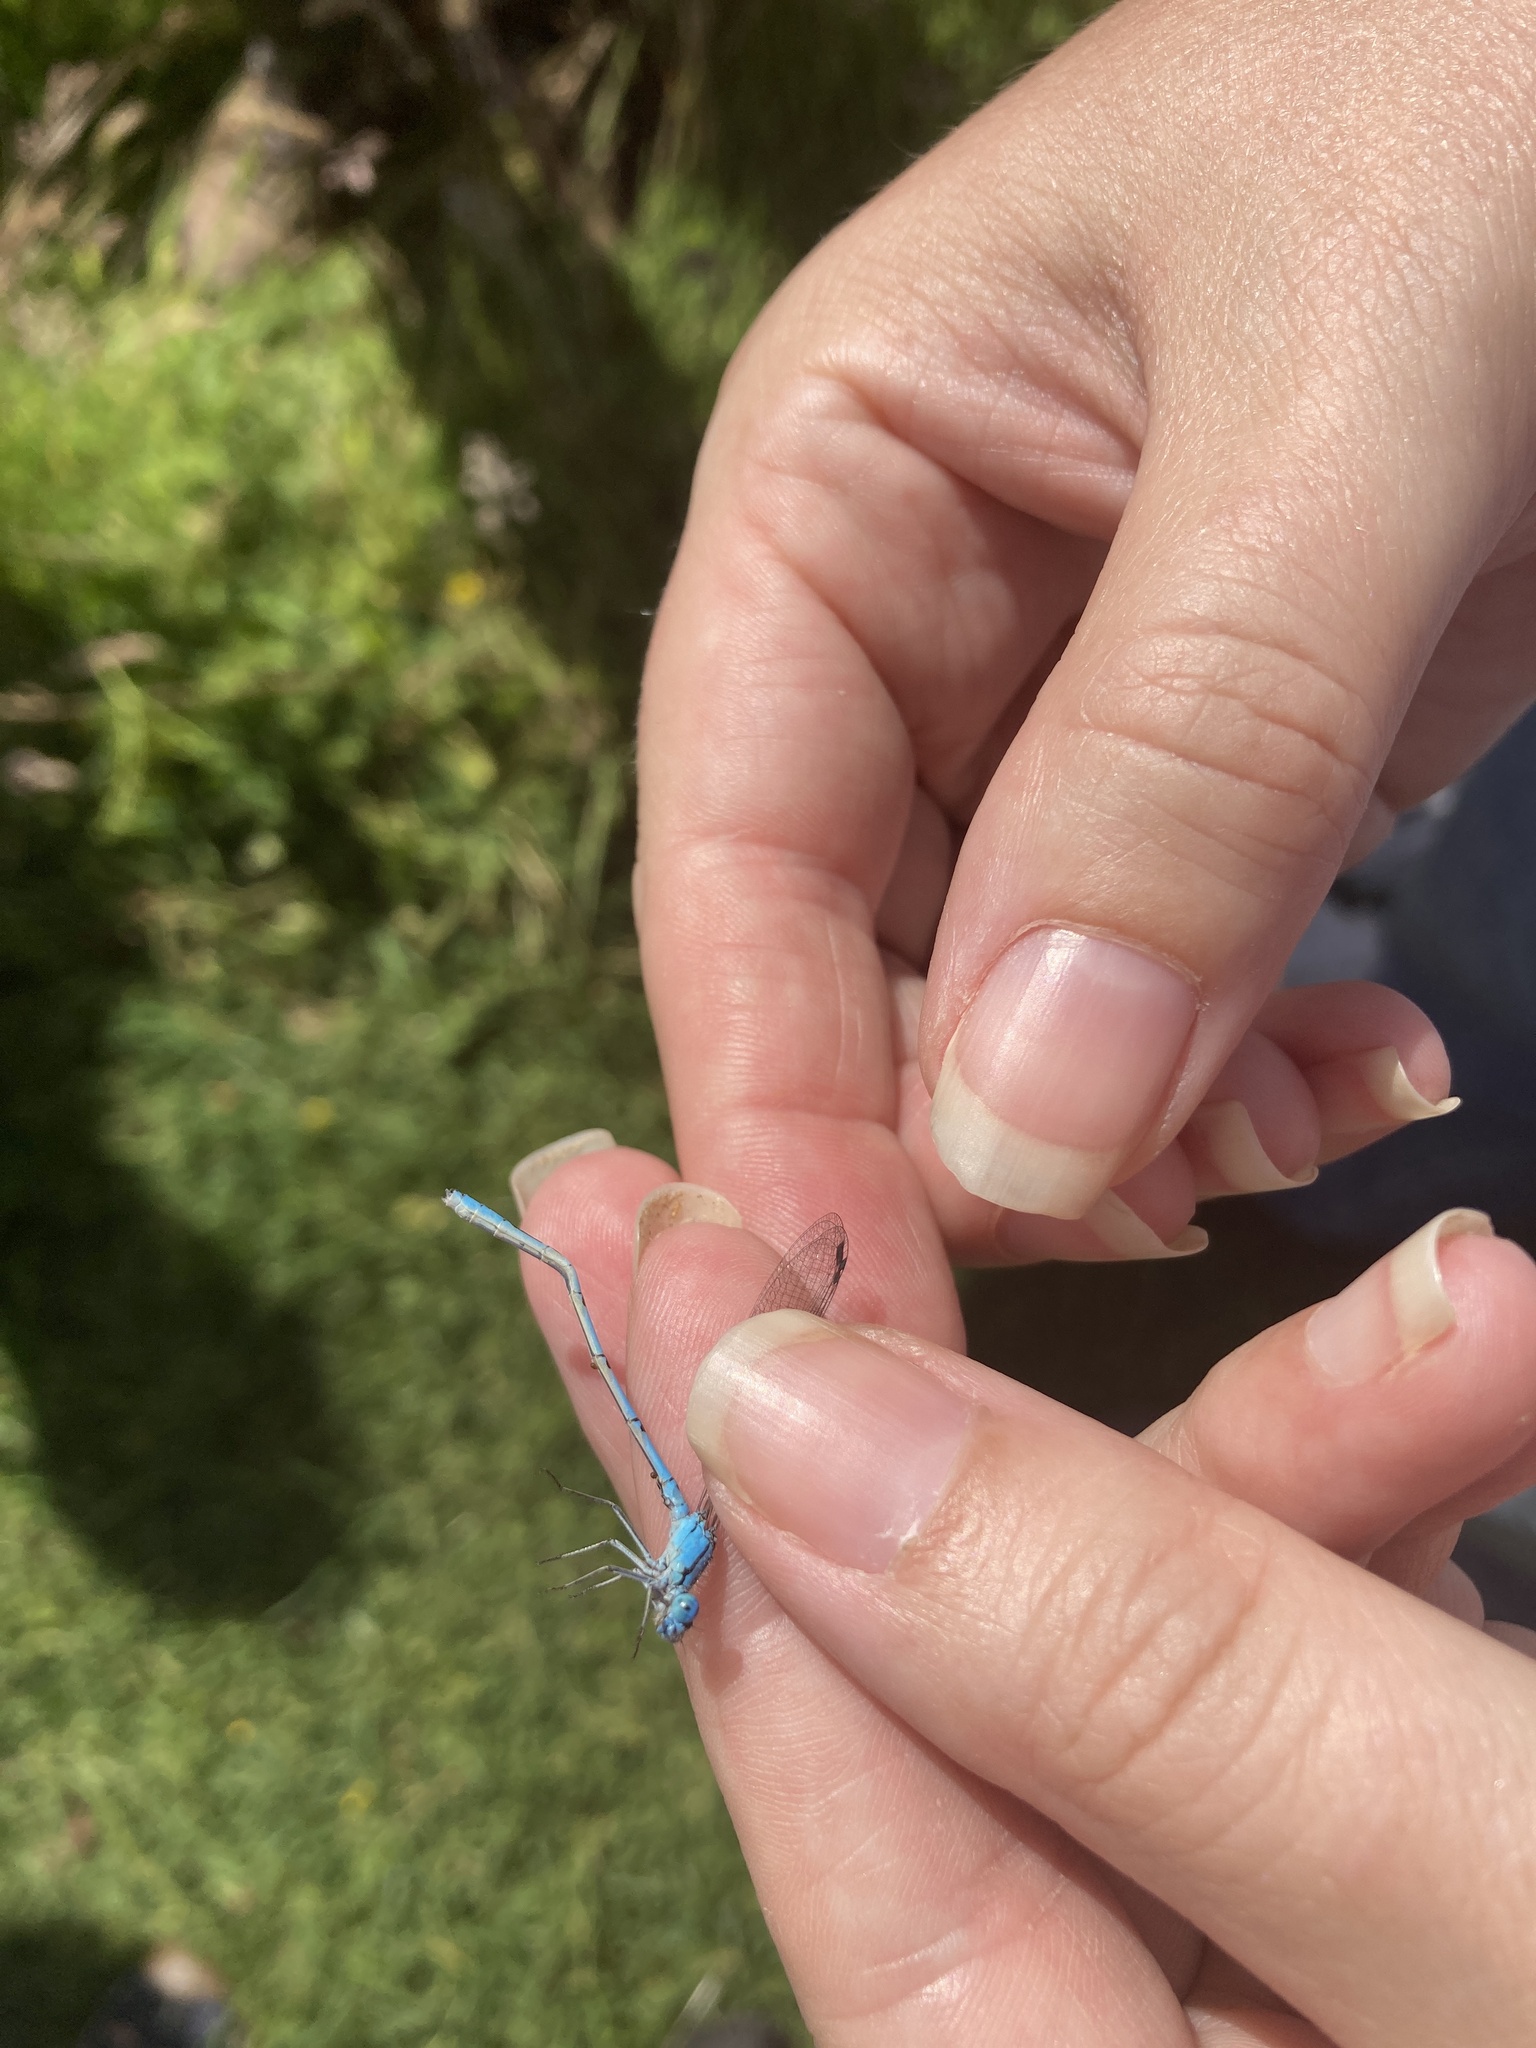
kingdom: Animalia
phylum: Arthropoda
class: Insecta
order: Odonata
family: Coenagrionidae
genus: Enallagma
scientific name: Enallagma cyathigerum
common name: Common blue damselfly
